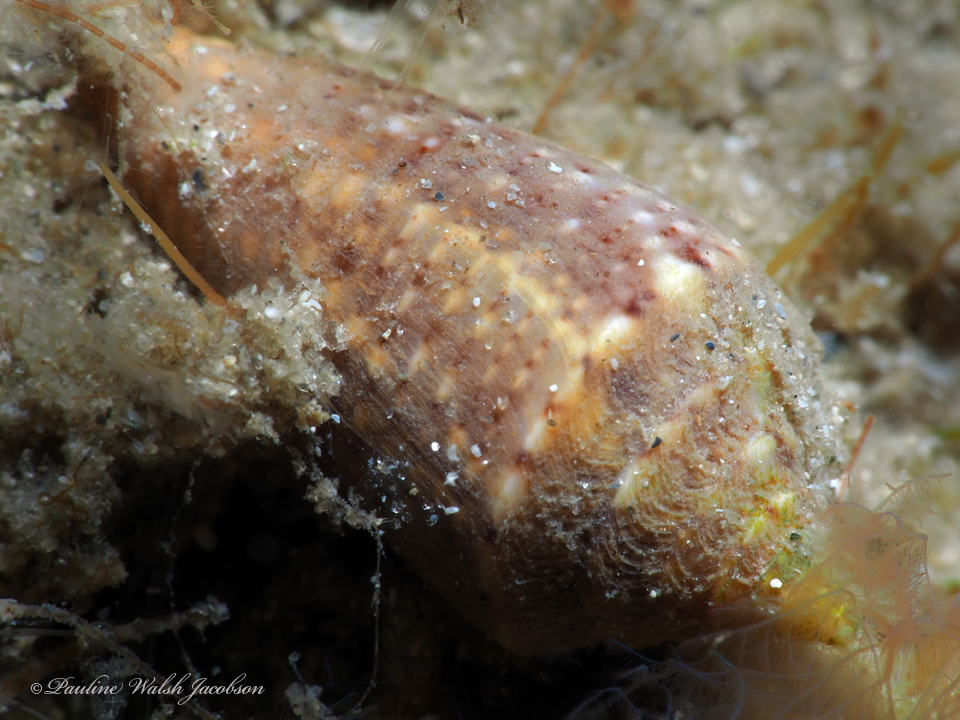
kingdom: Animalia
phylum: Mollusca
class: Gastropoda
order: Neogastropoda
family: Conidae
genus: Conasprella
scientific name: Conasprella stearnsii
